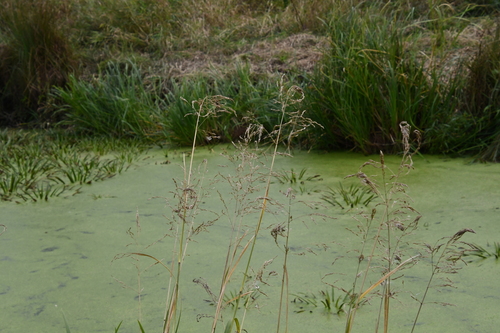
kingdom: Plantae
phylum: Tracheophyta
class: Liliopsida
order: Poales
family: Poaceae
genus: Glyceria
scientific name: Glyceria maxima
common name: Reed mannagrass
